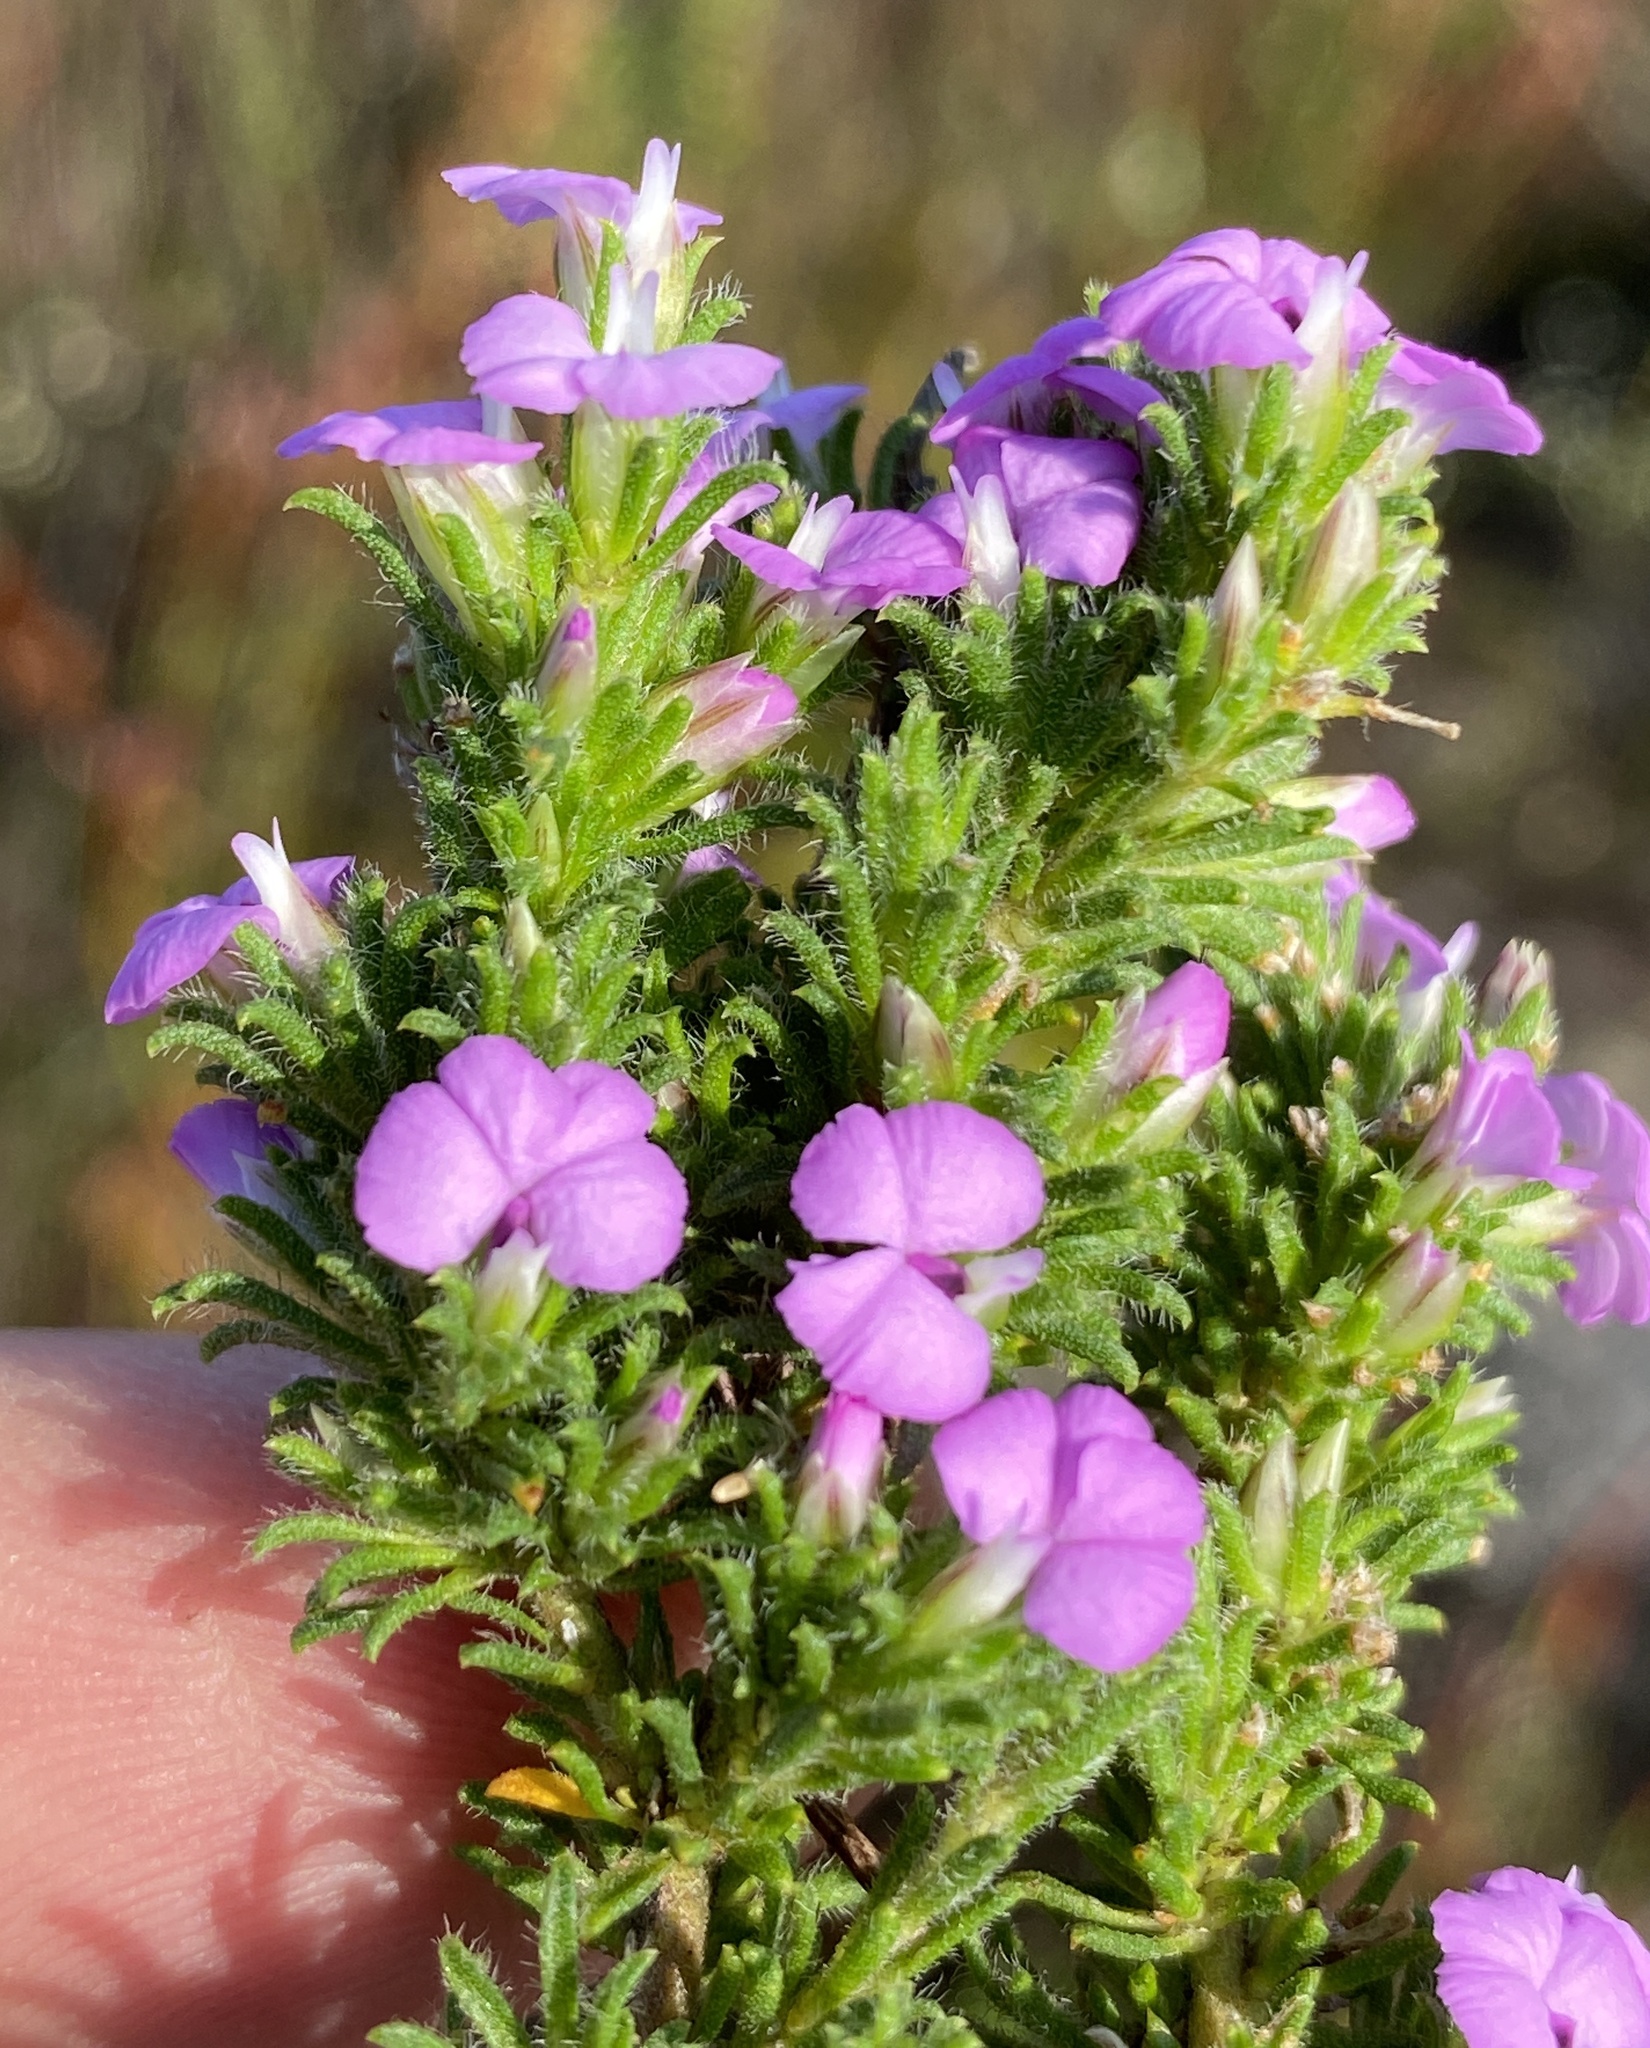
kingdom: Plantae
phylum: Tracheophyta
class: Magnoliopsida
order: Fabales
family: Polygalaceae
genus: Muraltia
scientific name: Muraltia rubeacea
